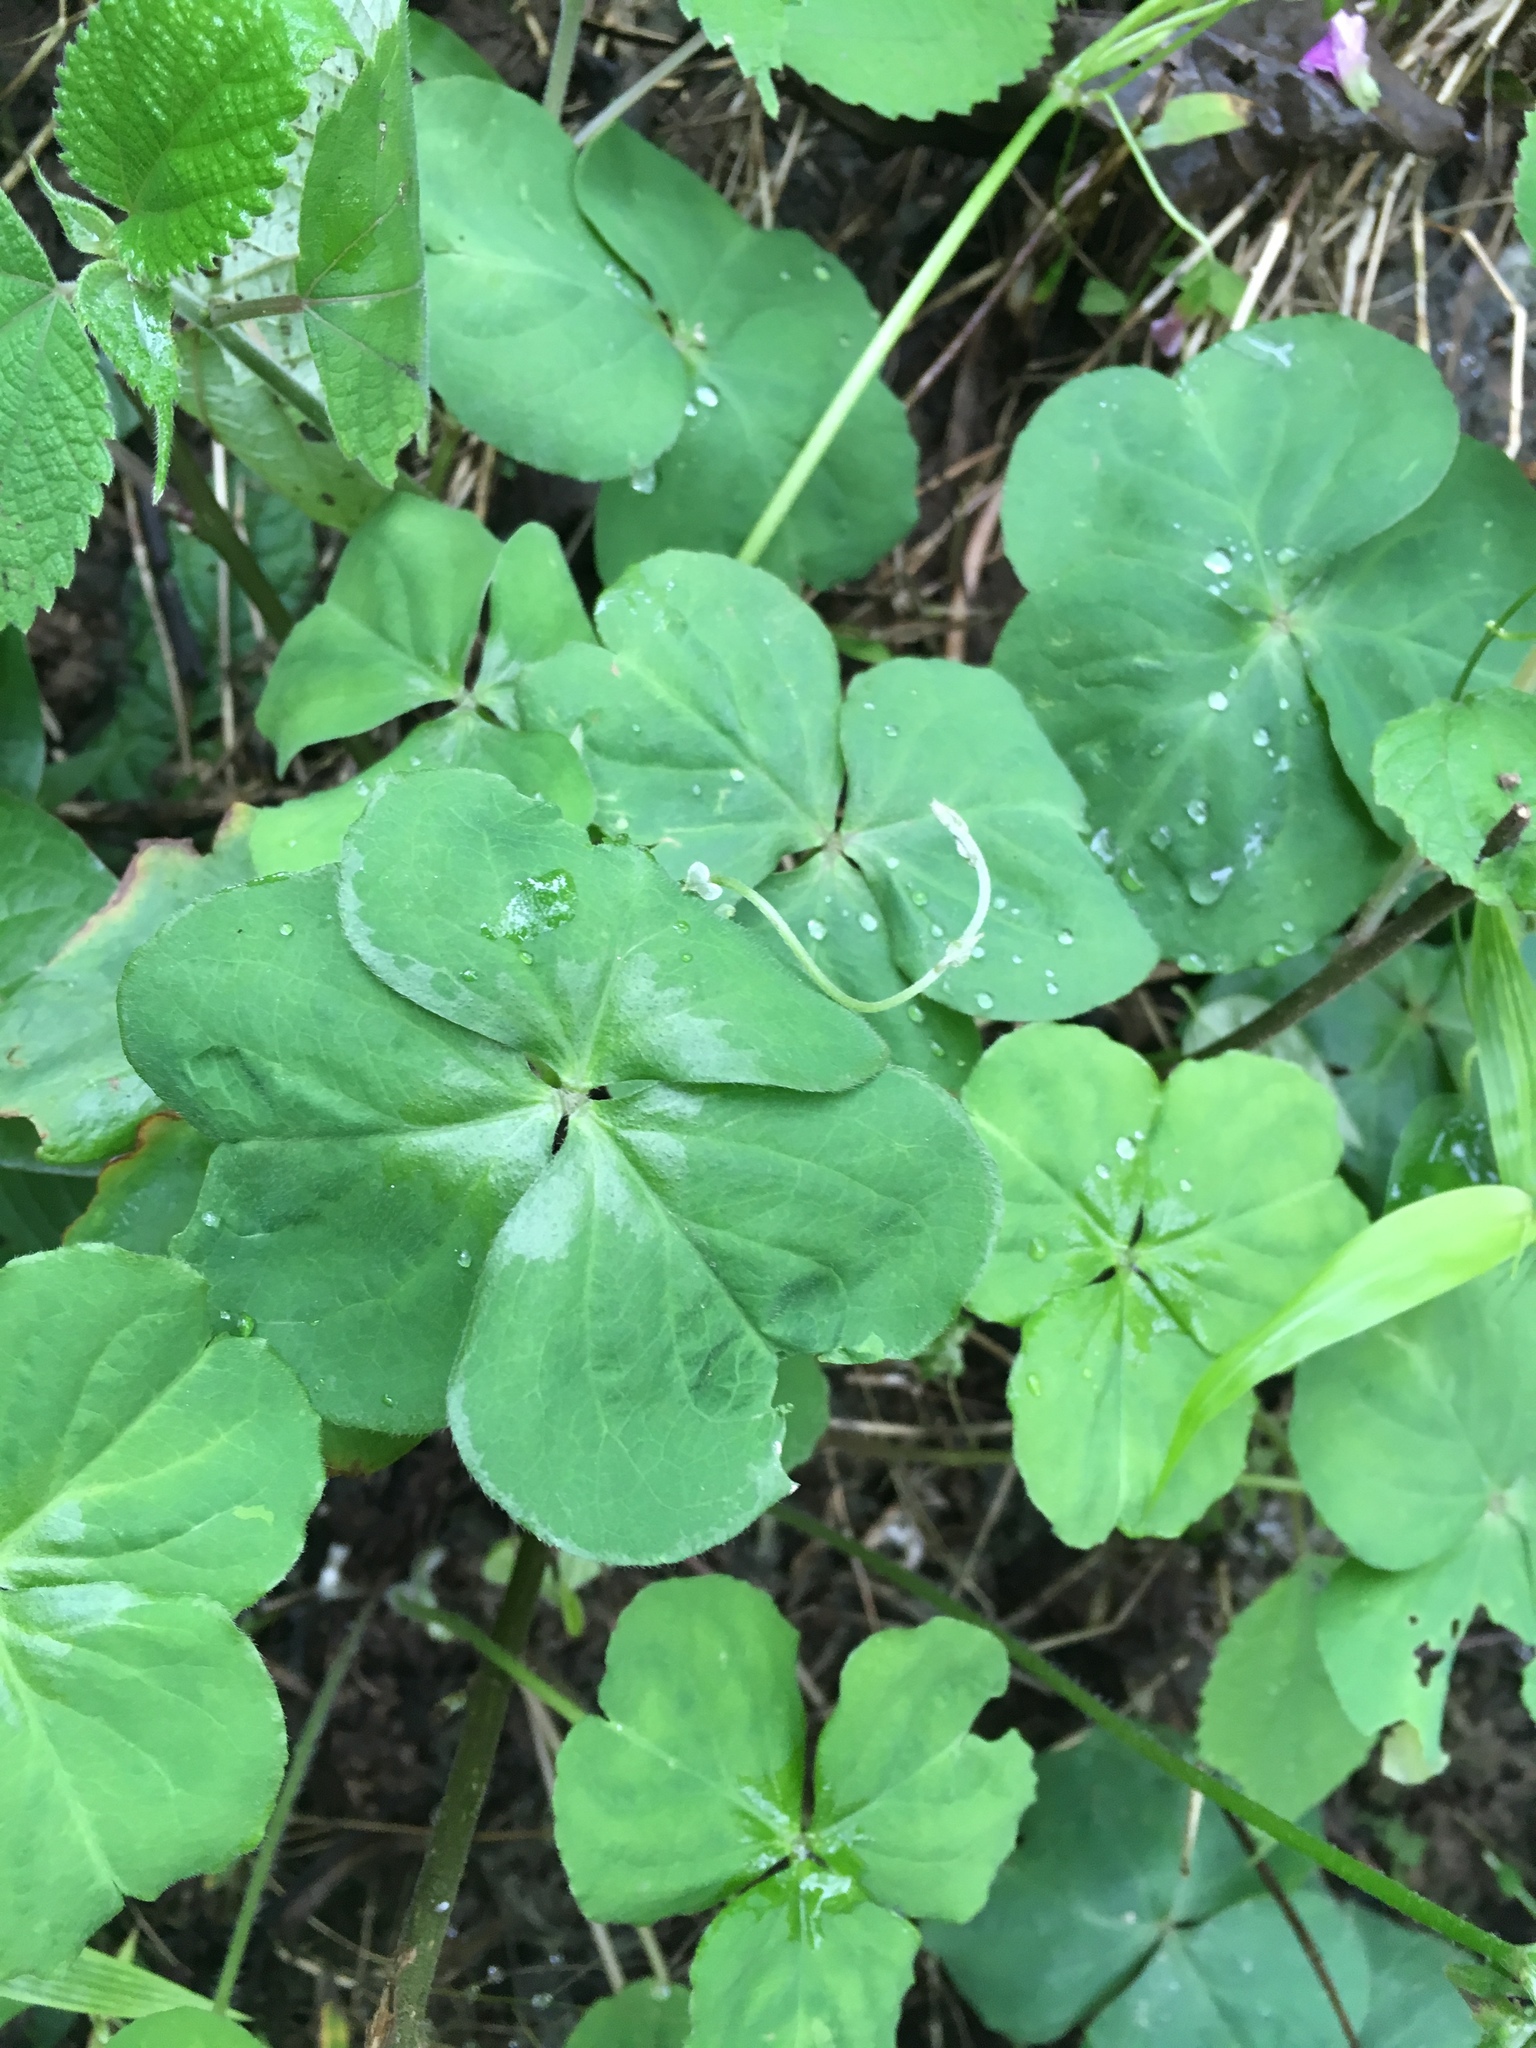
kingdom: Plantae
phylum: Tracheophyta
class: Magnoliopsida
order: Oxalidales
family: Oxalidaceae
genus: Oxalis
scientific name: Oxalis debilis
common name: Large-flowered pink-sorrel
